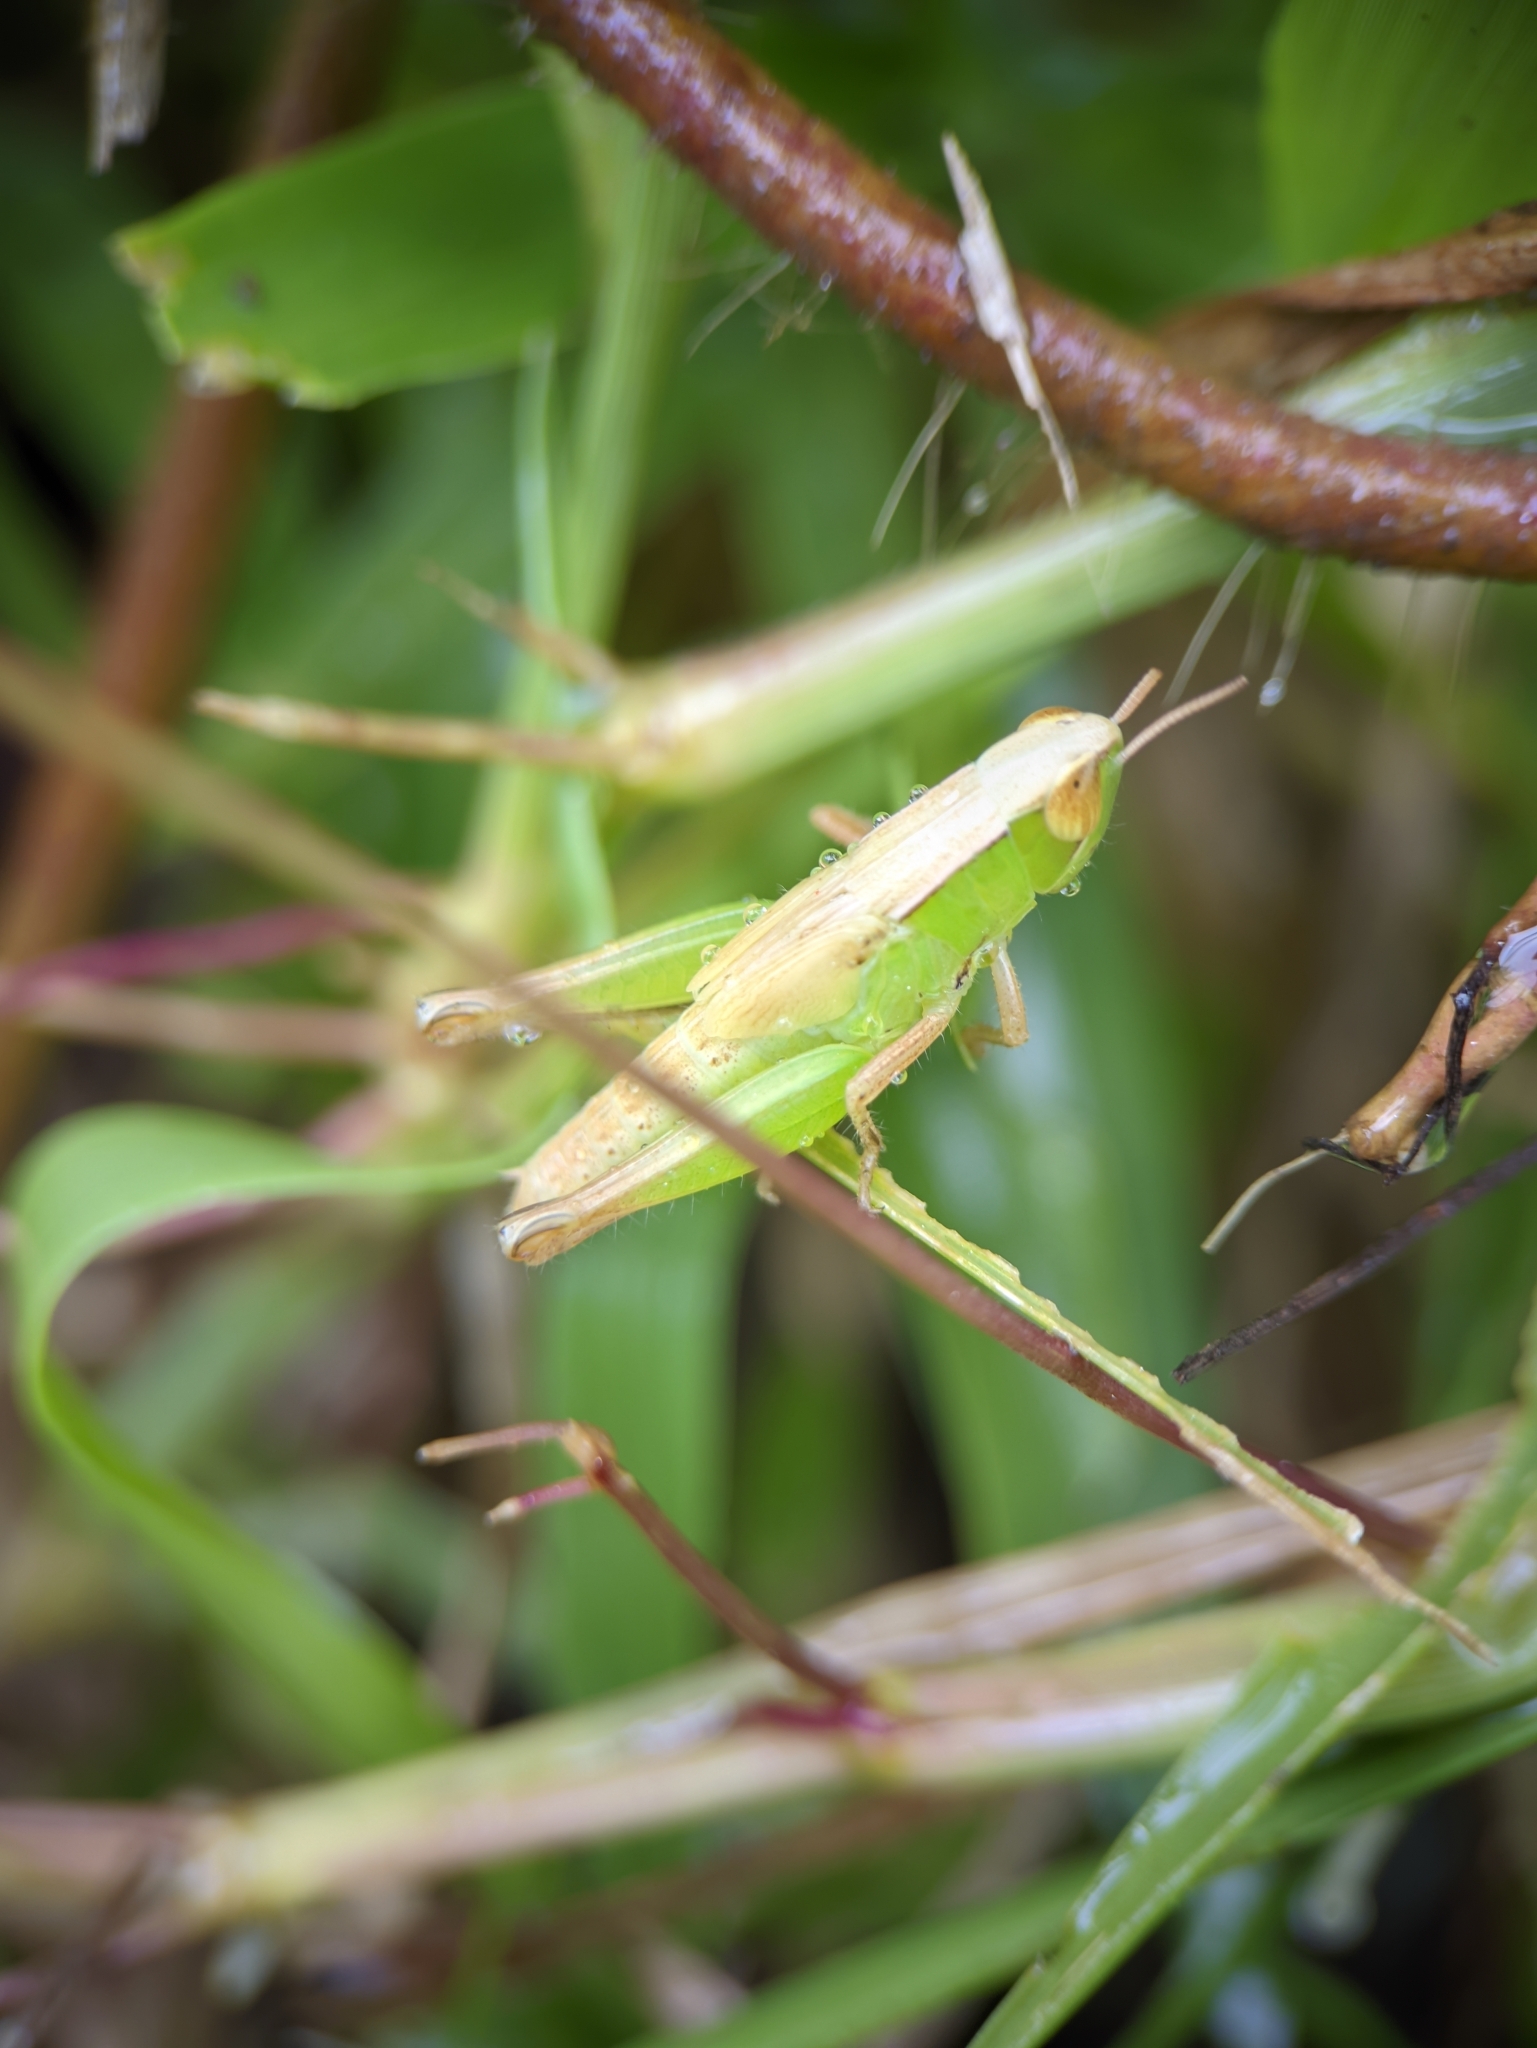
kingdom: Animalia
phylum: Arthropoda
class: Insecta
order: Orthoptera
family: Acrididae
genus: Spathosternum
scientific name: Spathosternum prasiniferum
